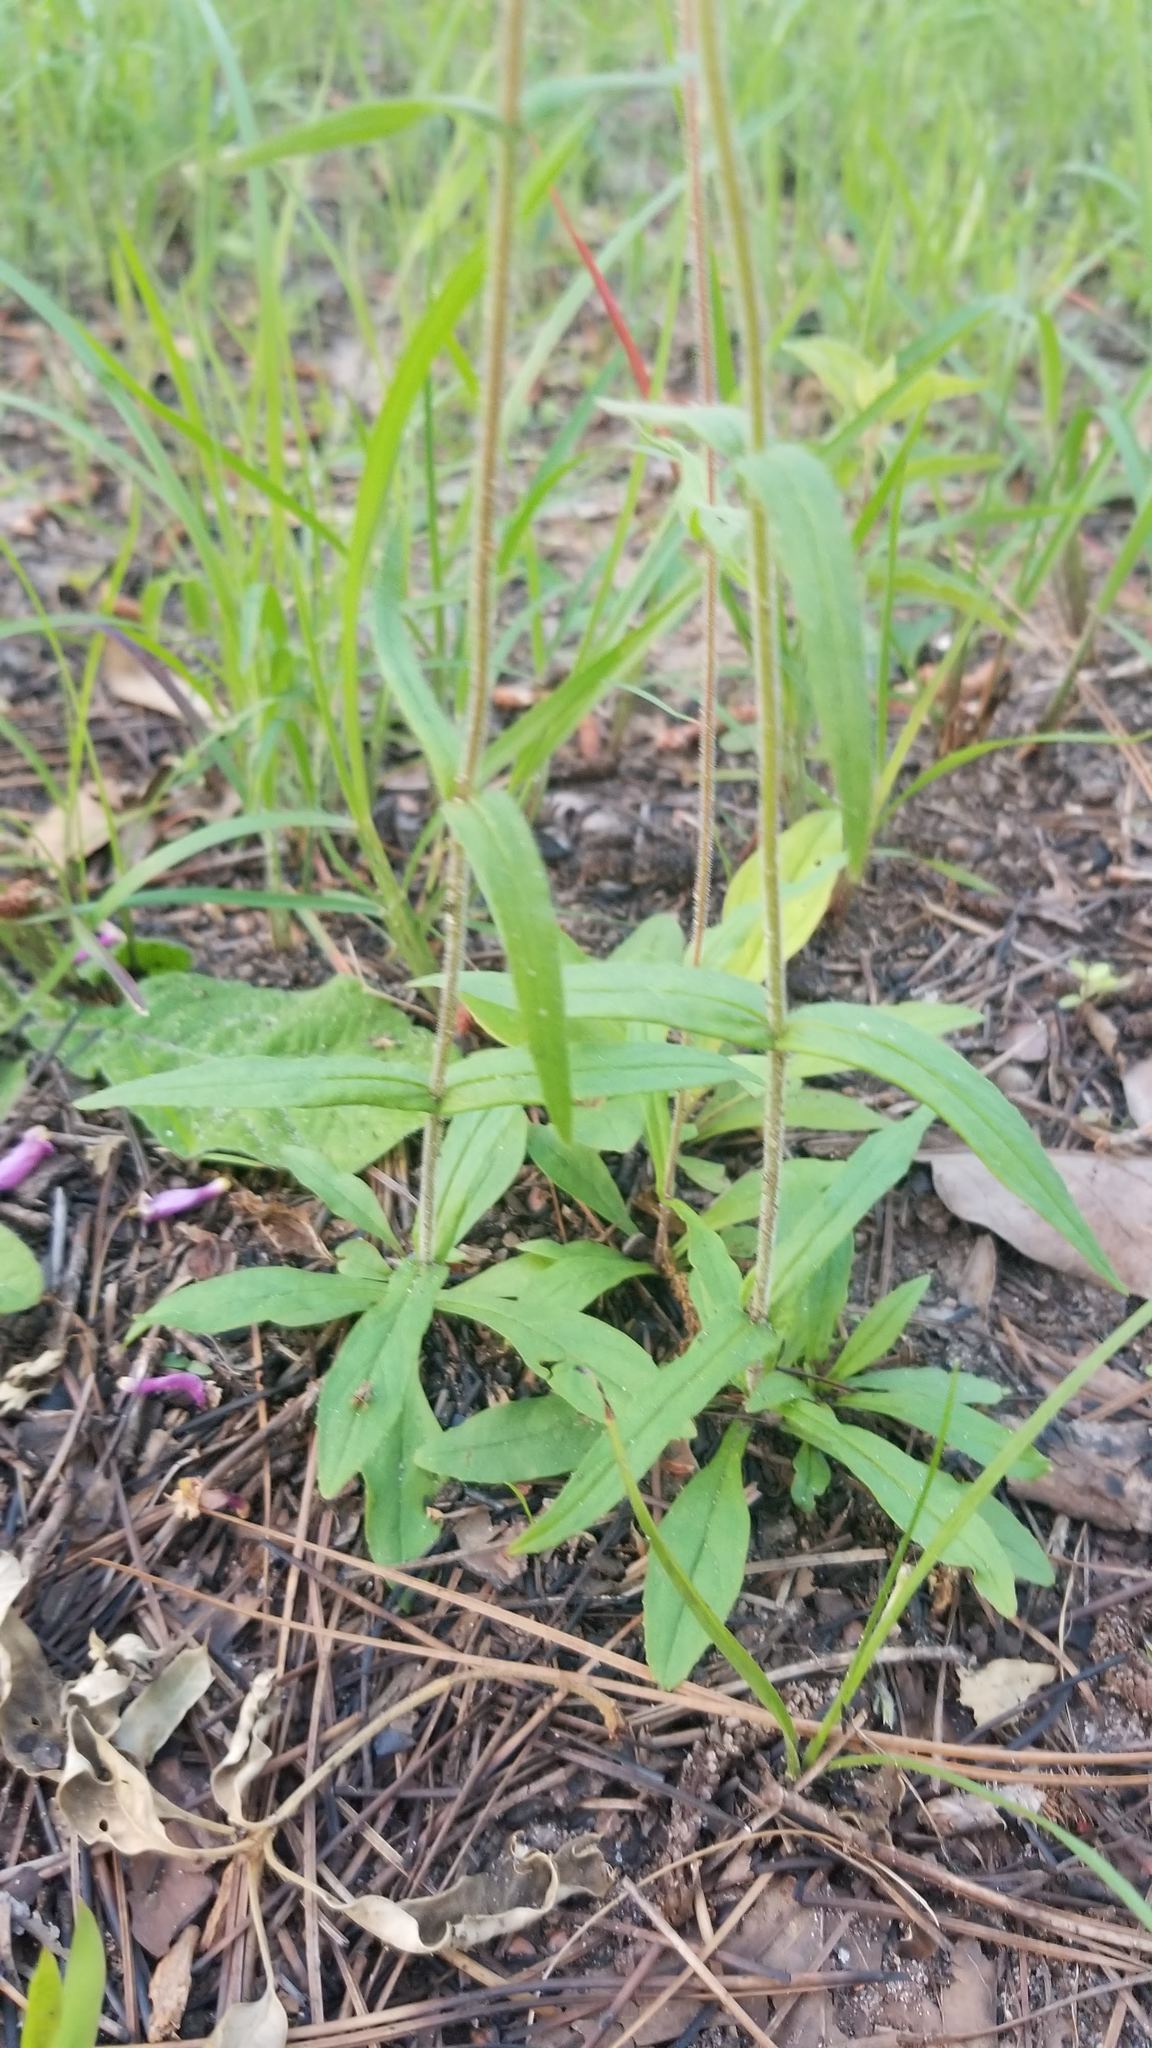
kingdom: Plantae
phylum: Tracheophyta
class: Magnoliopsida
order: Lamiales
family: Plantaginaceae
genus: Penstemon
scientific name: Penstemon australis
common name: Southeastern beardtongue
